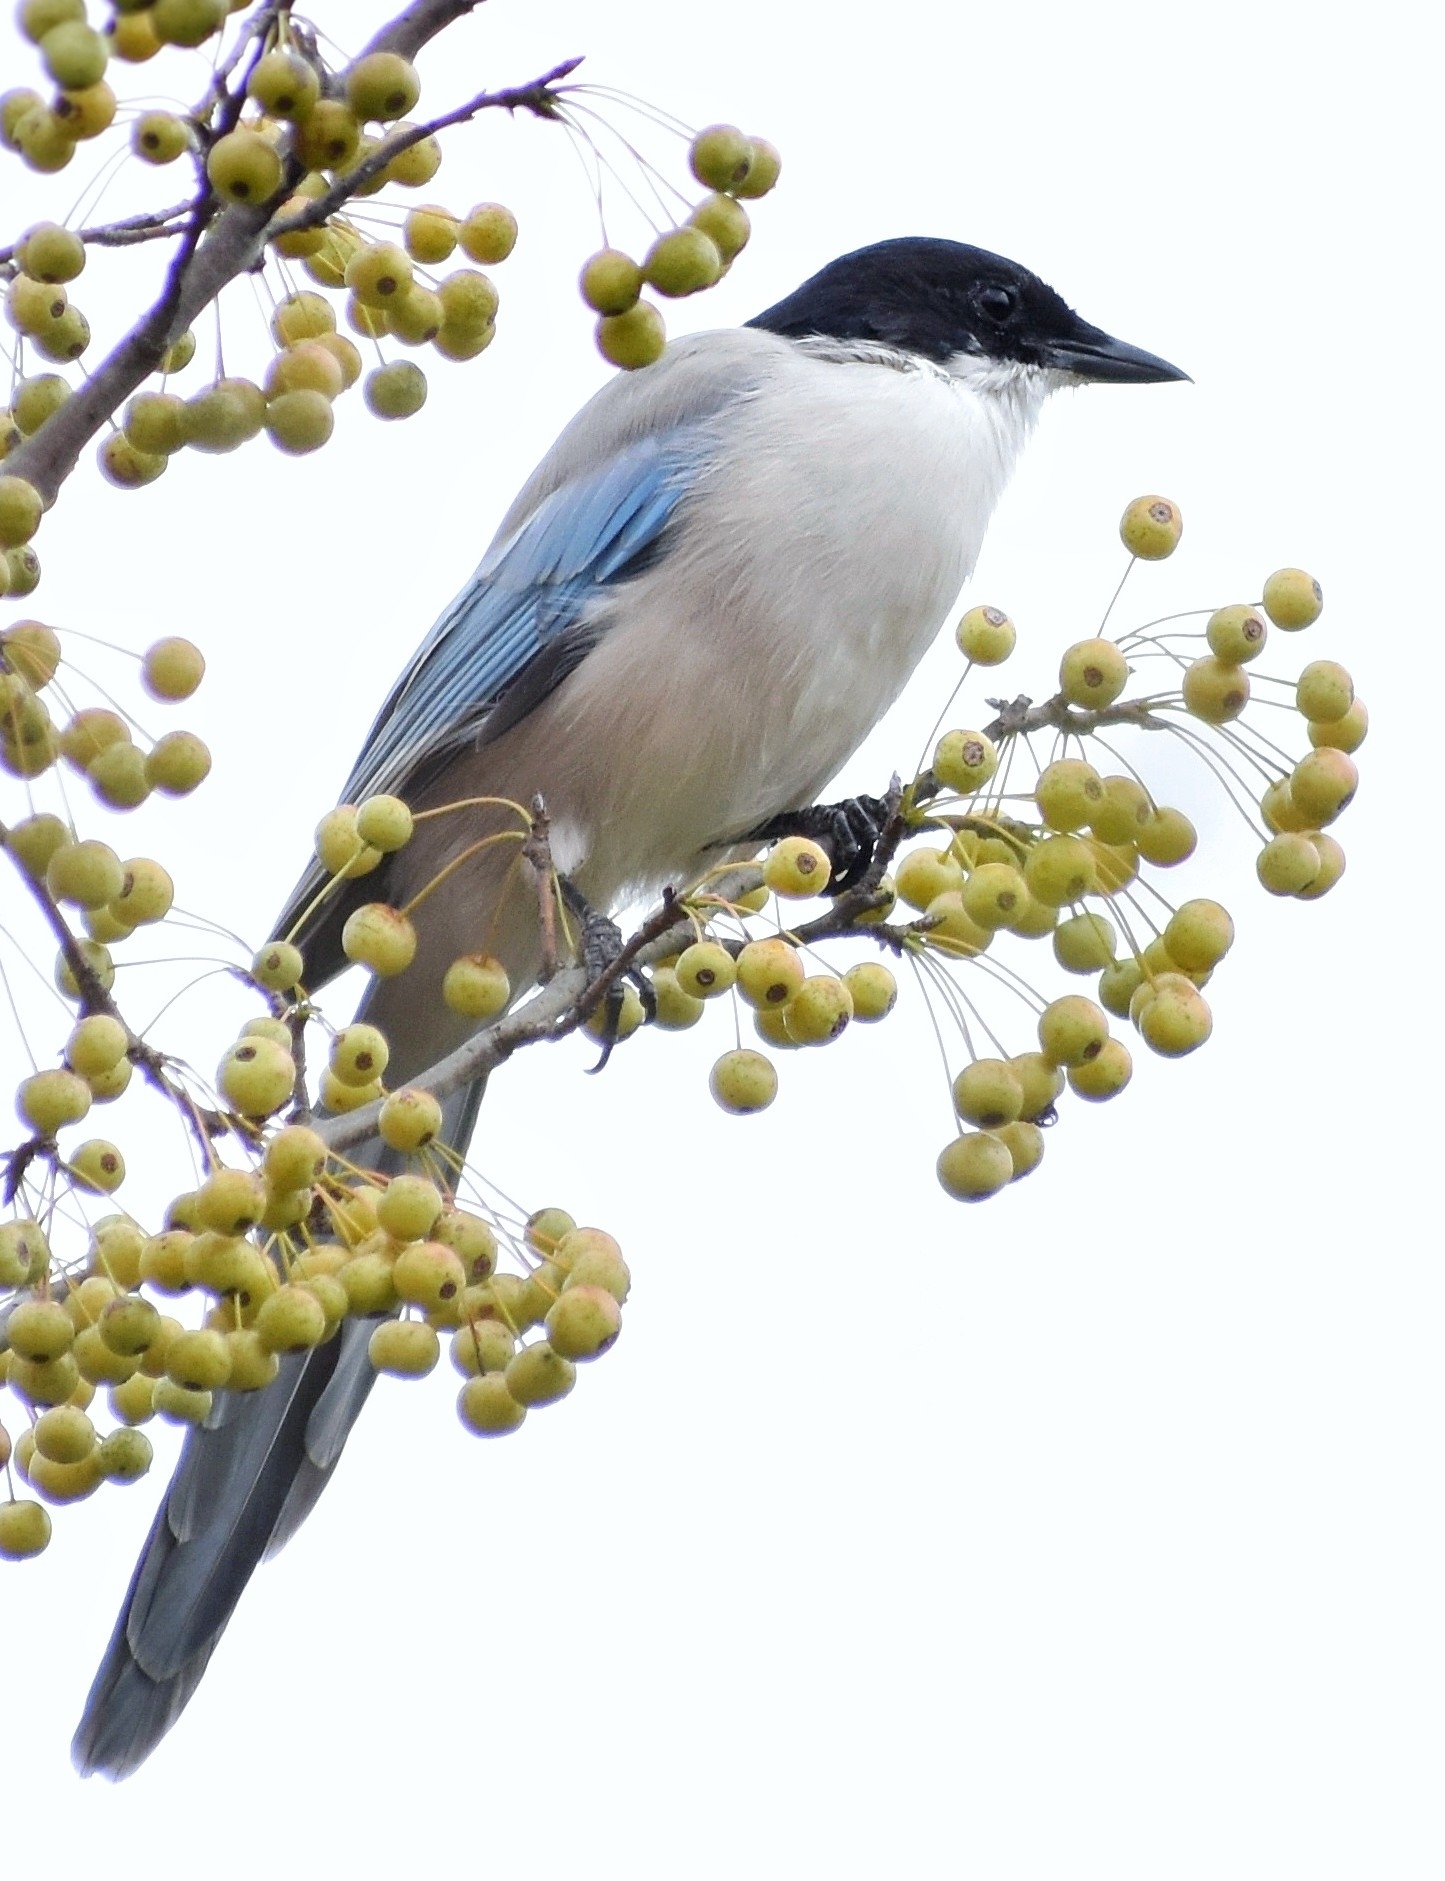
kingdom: Animalia
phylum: Chordata
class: Aves
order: Passeriformes
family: Corvidae
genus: Cyanopica
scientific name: Cyanopica cyanus
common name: Azure-winged magpie
